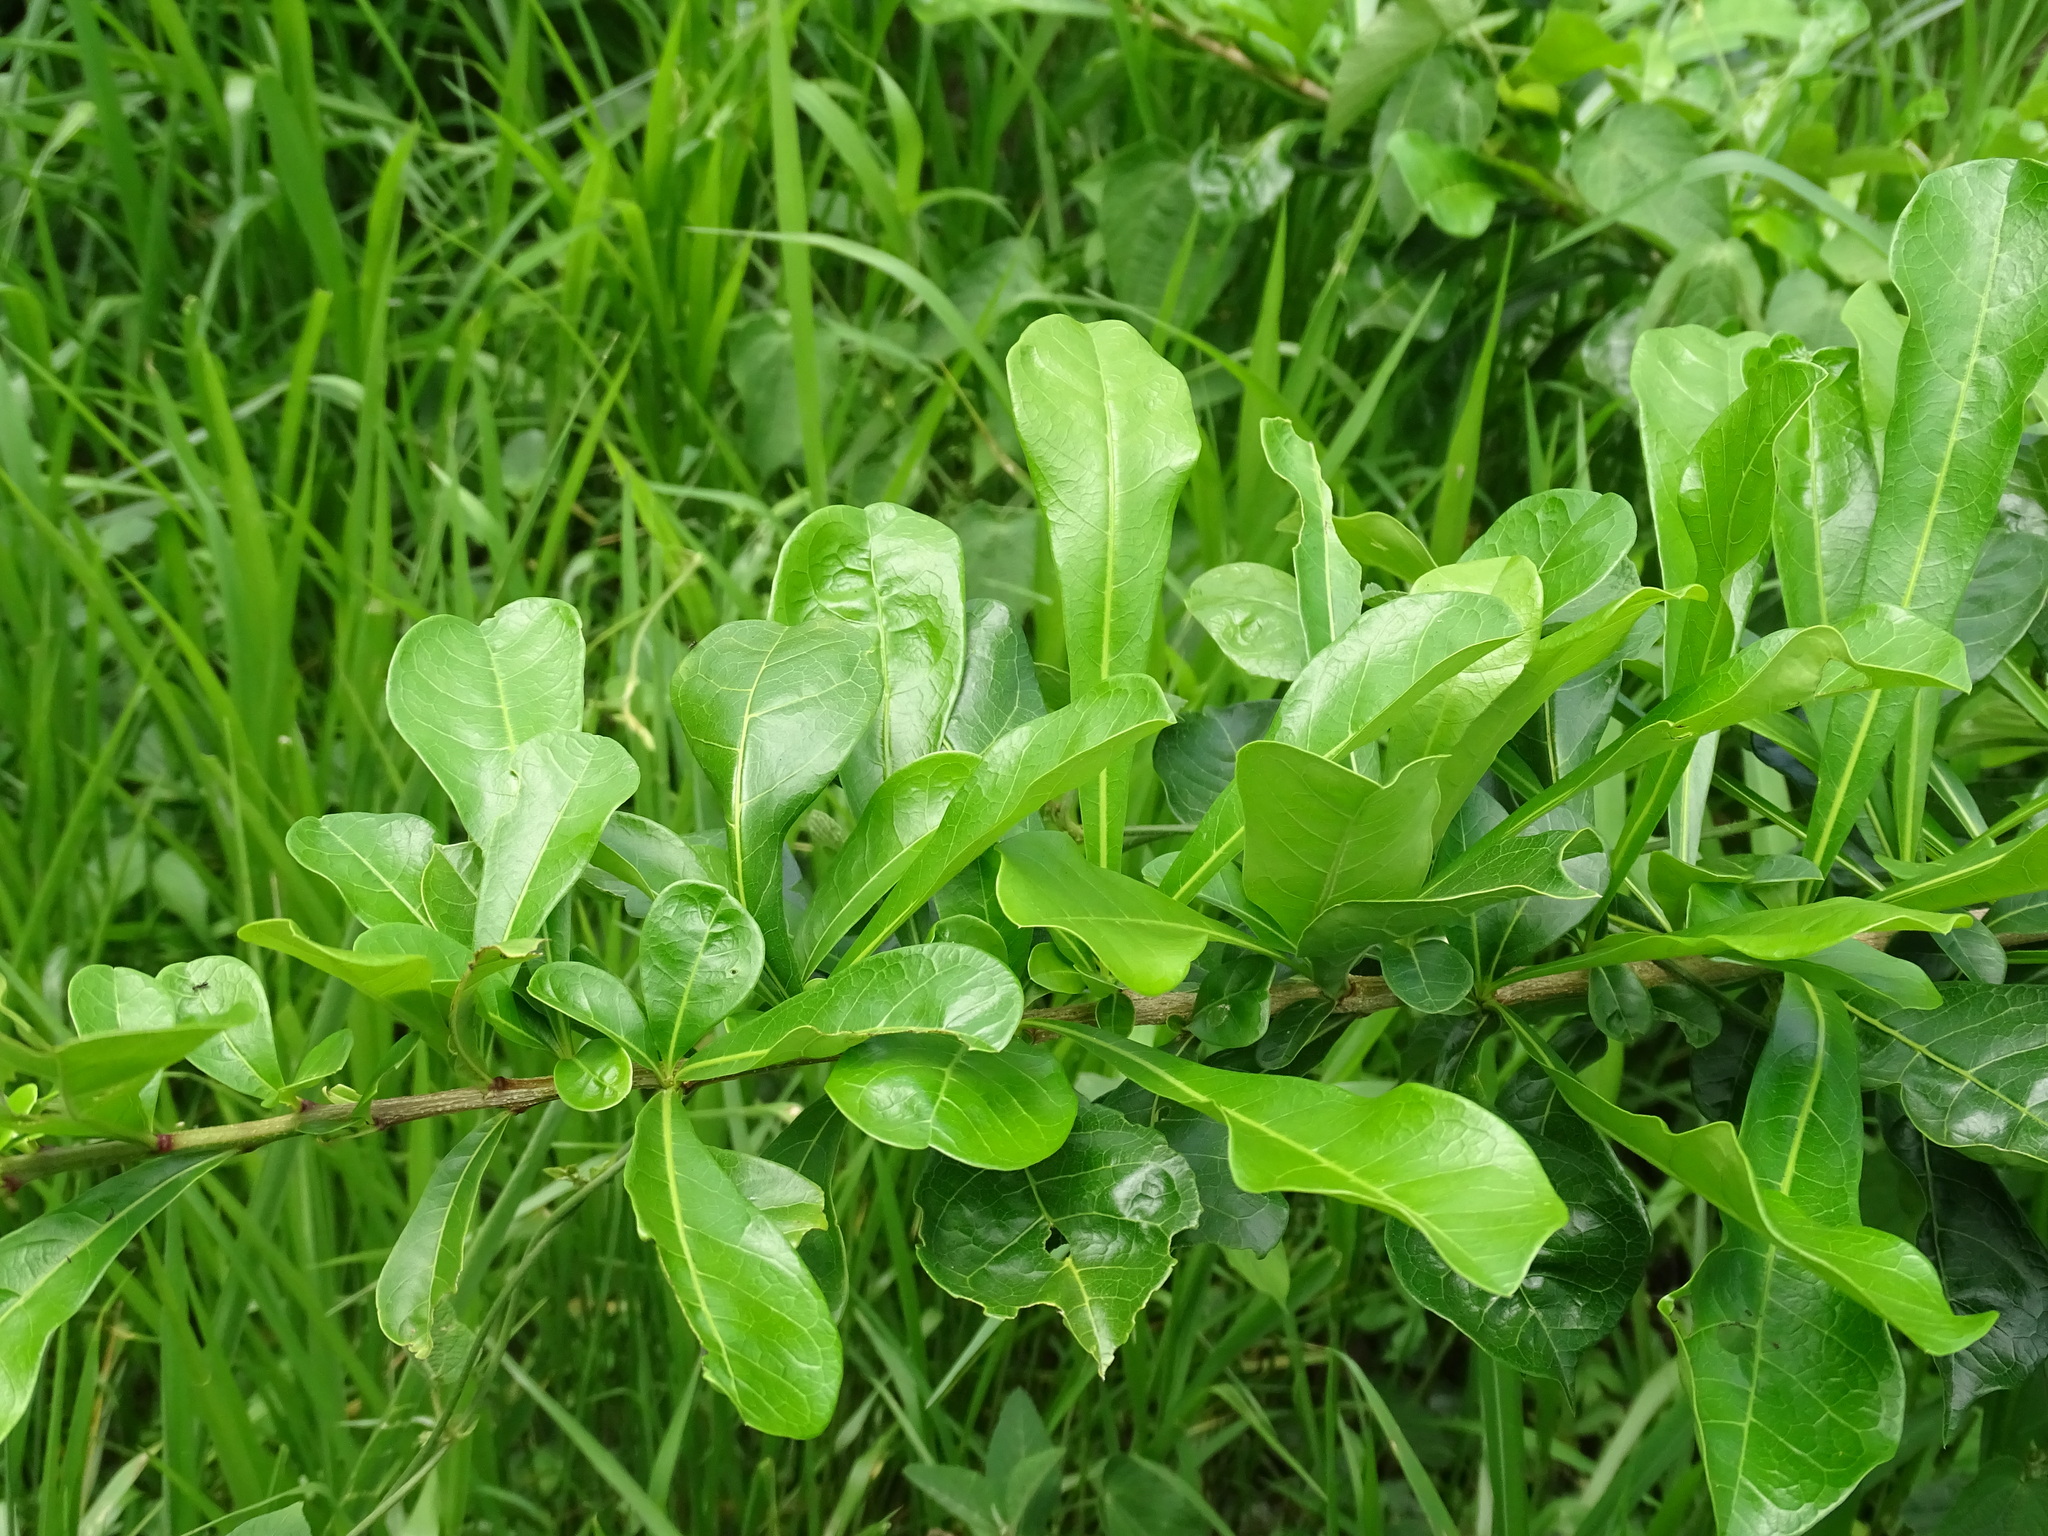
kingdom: Plantae
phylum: Tracheophyta
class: Magnoliopsida
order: Lamiales
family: Bignoniaceae
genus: Crescentia
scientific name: Crescentia cujete
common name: Calabash
